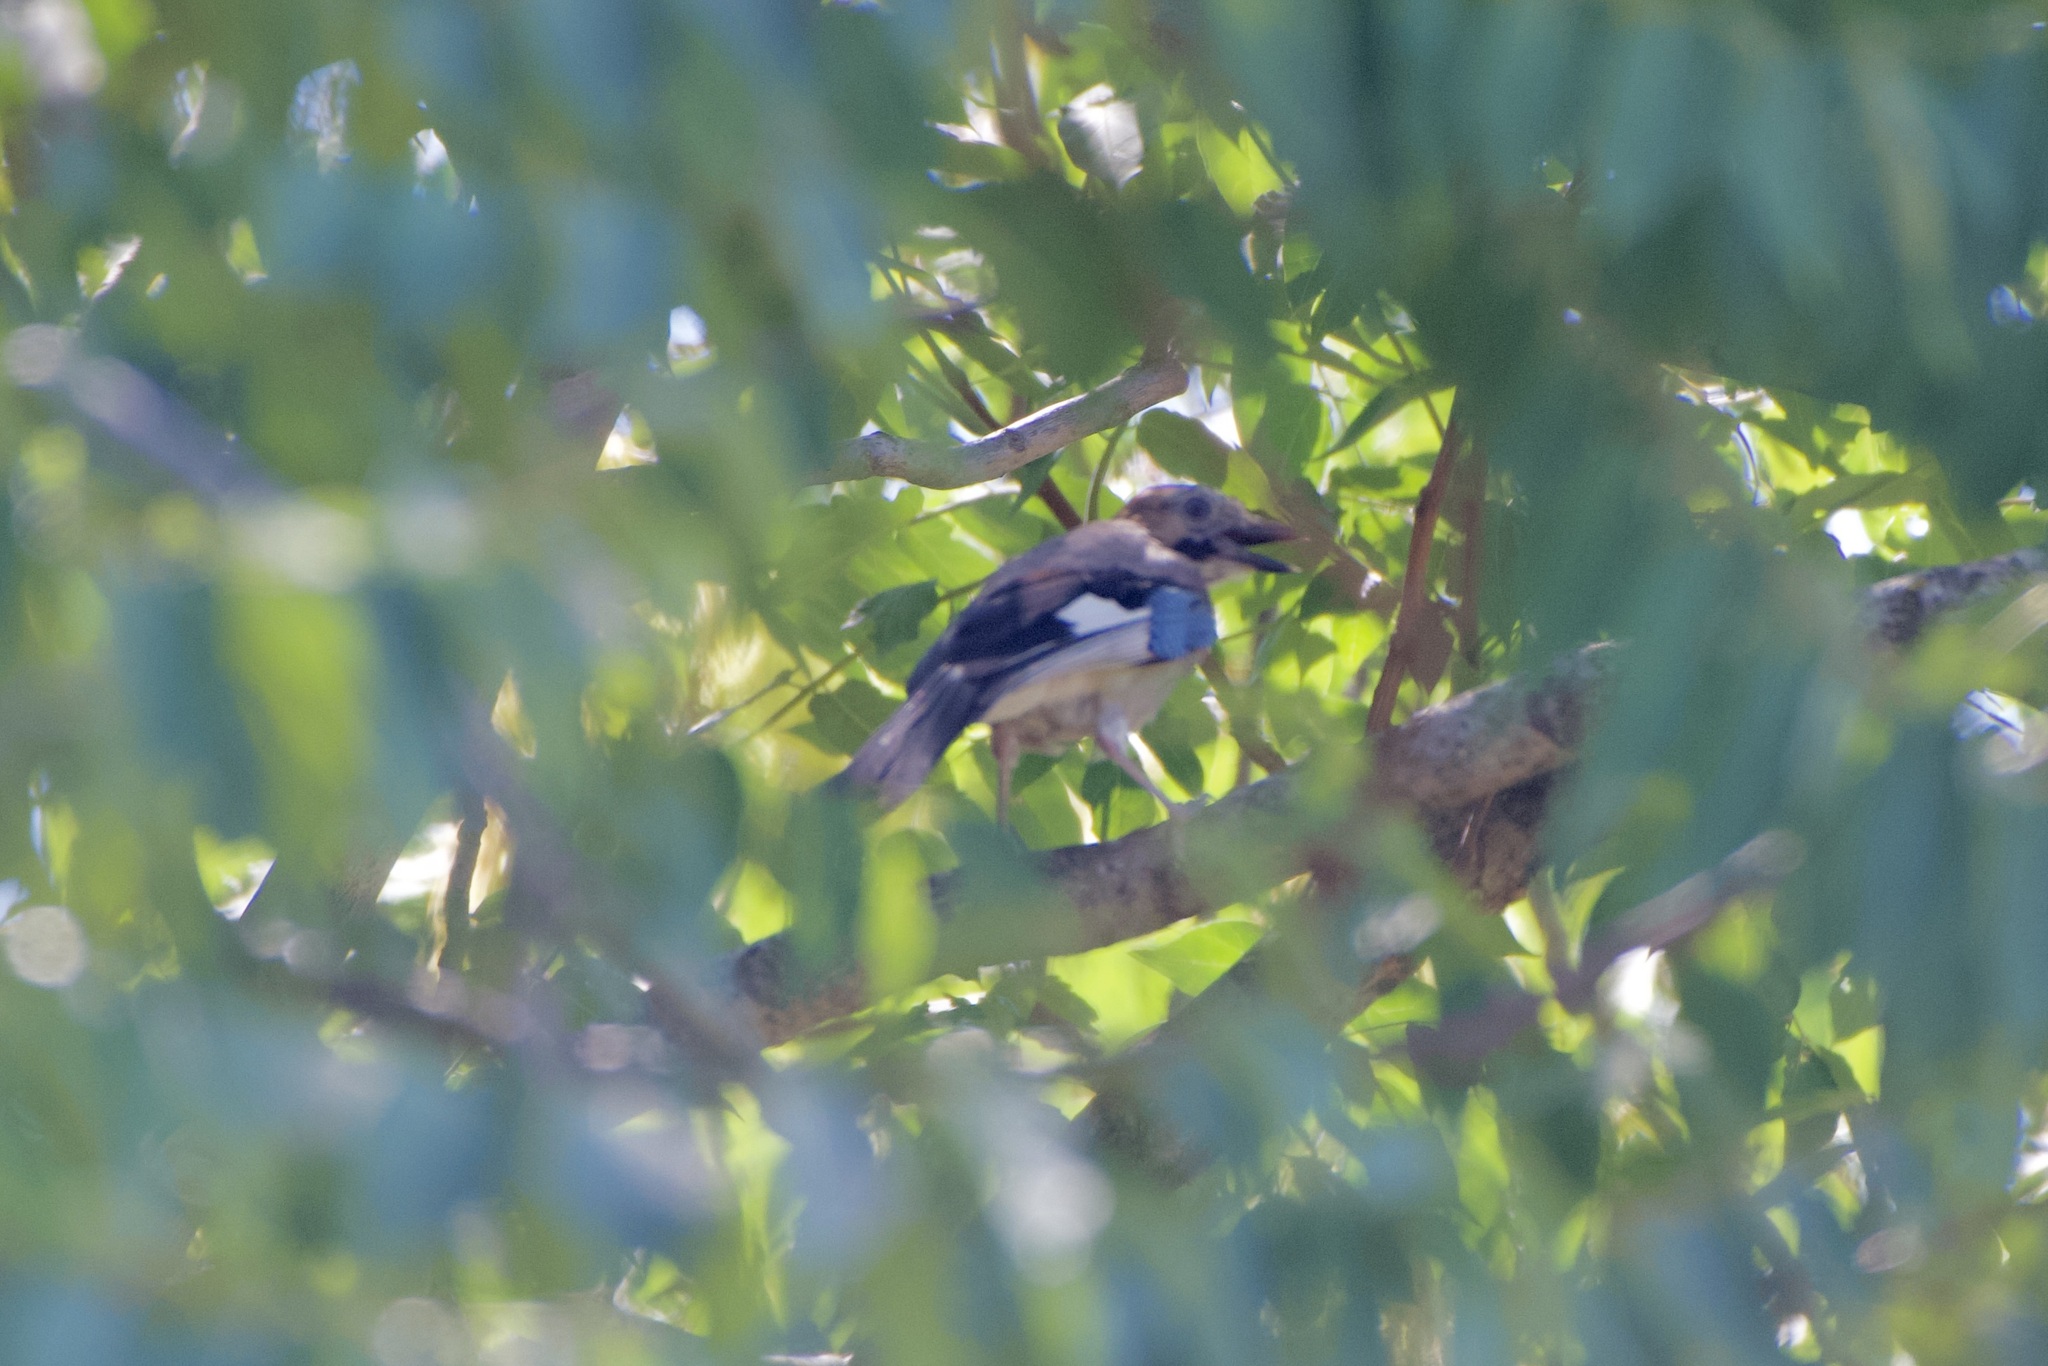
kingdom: Animalia
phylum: Chordata
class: Aves
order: Passeriformes
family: Corvidae
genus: Garrulus
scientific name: Garrulus glandarius
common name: Eurasian jay
